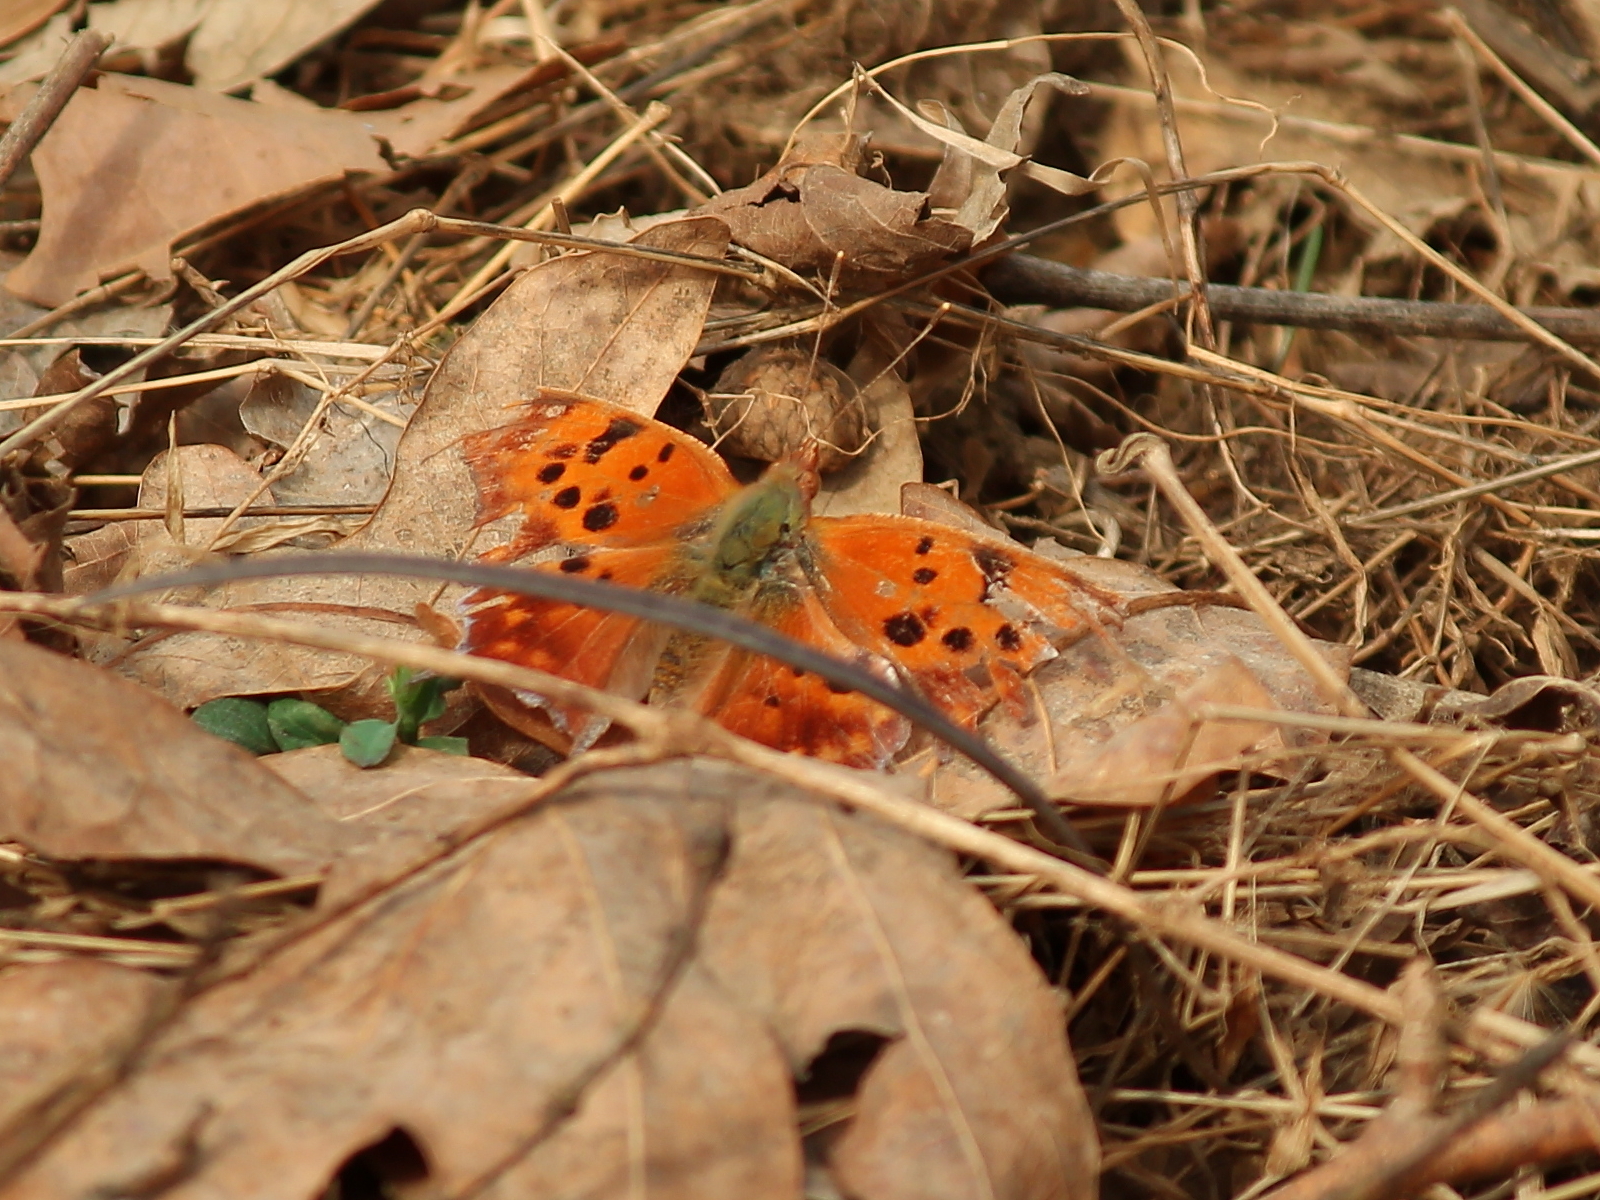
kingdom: Animalia
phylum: Arthropoda
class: Insecta
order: Lepidoptera
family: Nymphalidae
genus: Polygonia
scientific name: Polygonia interrogationis
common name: Question mark
